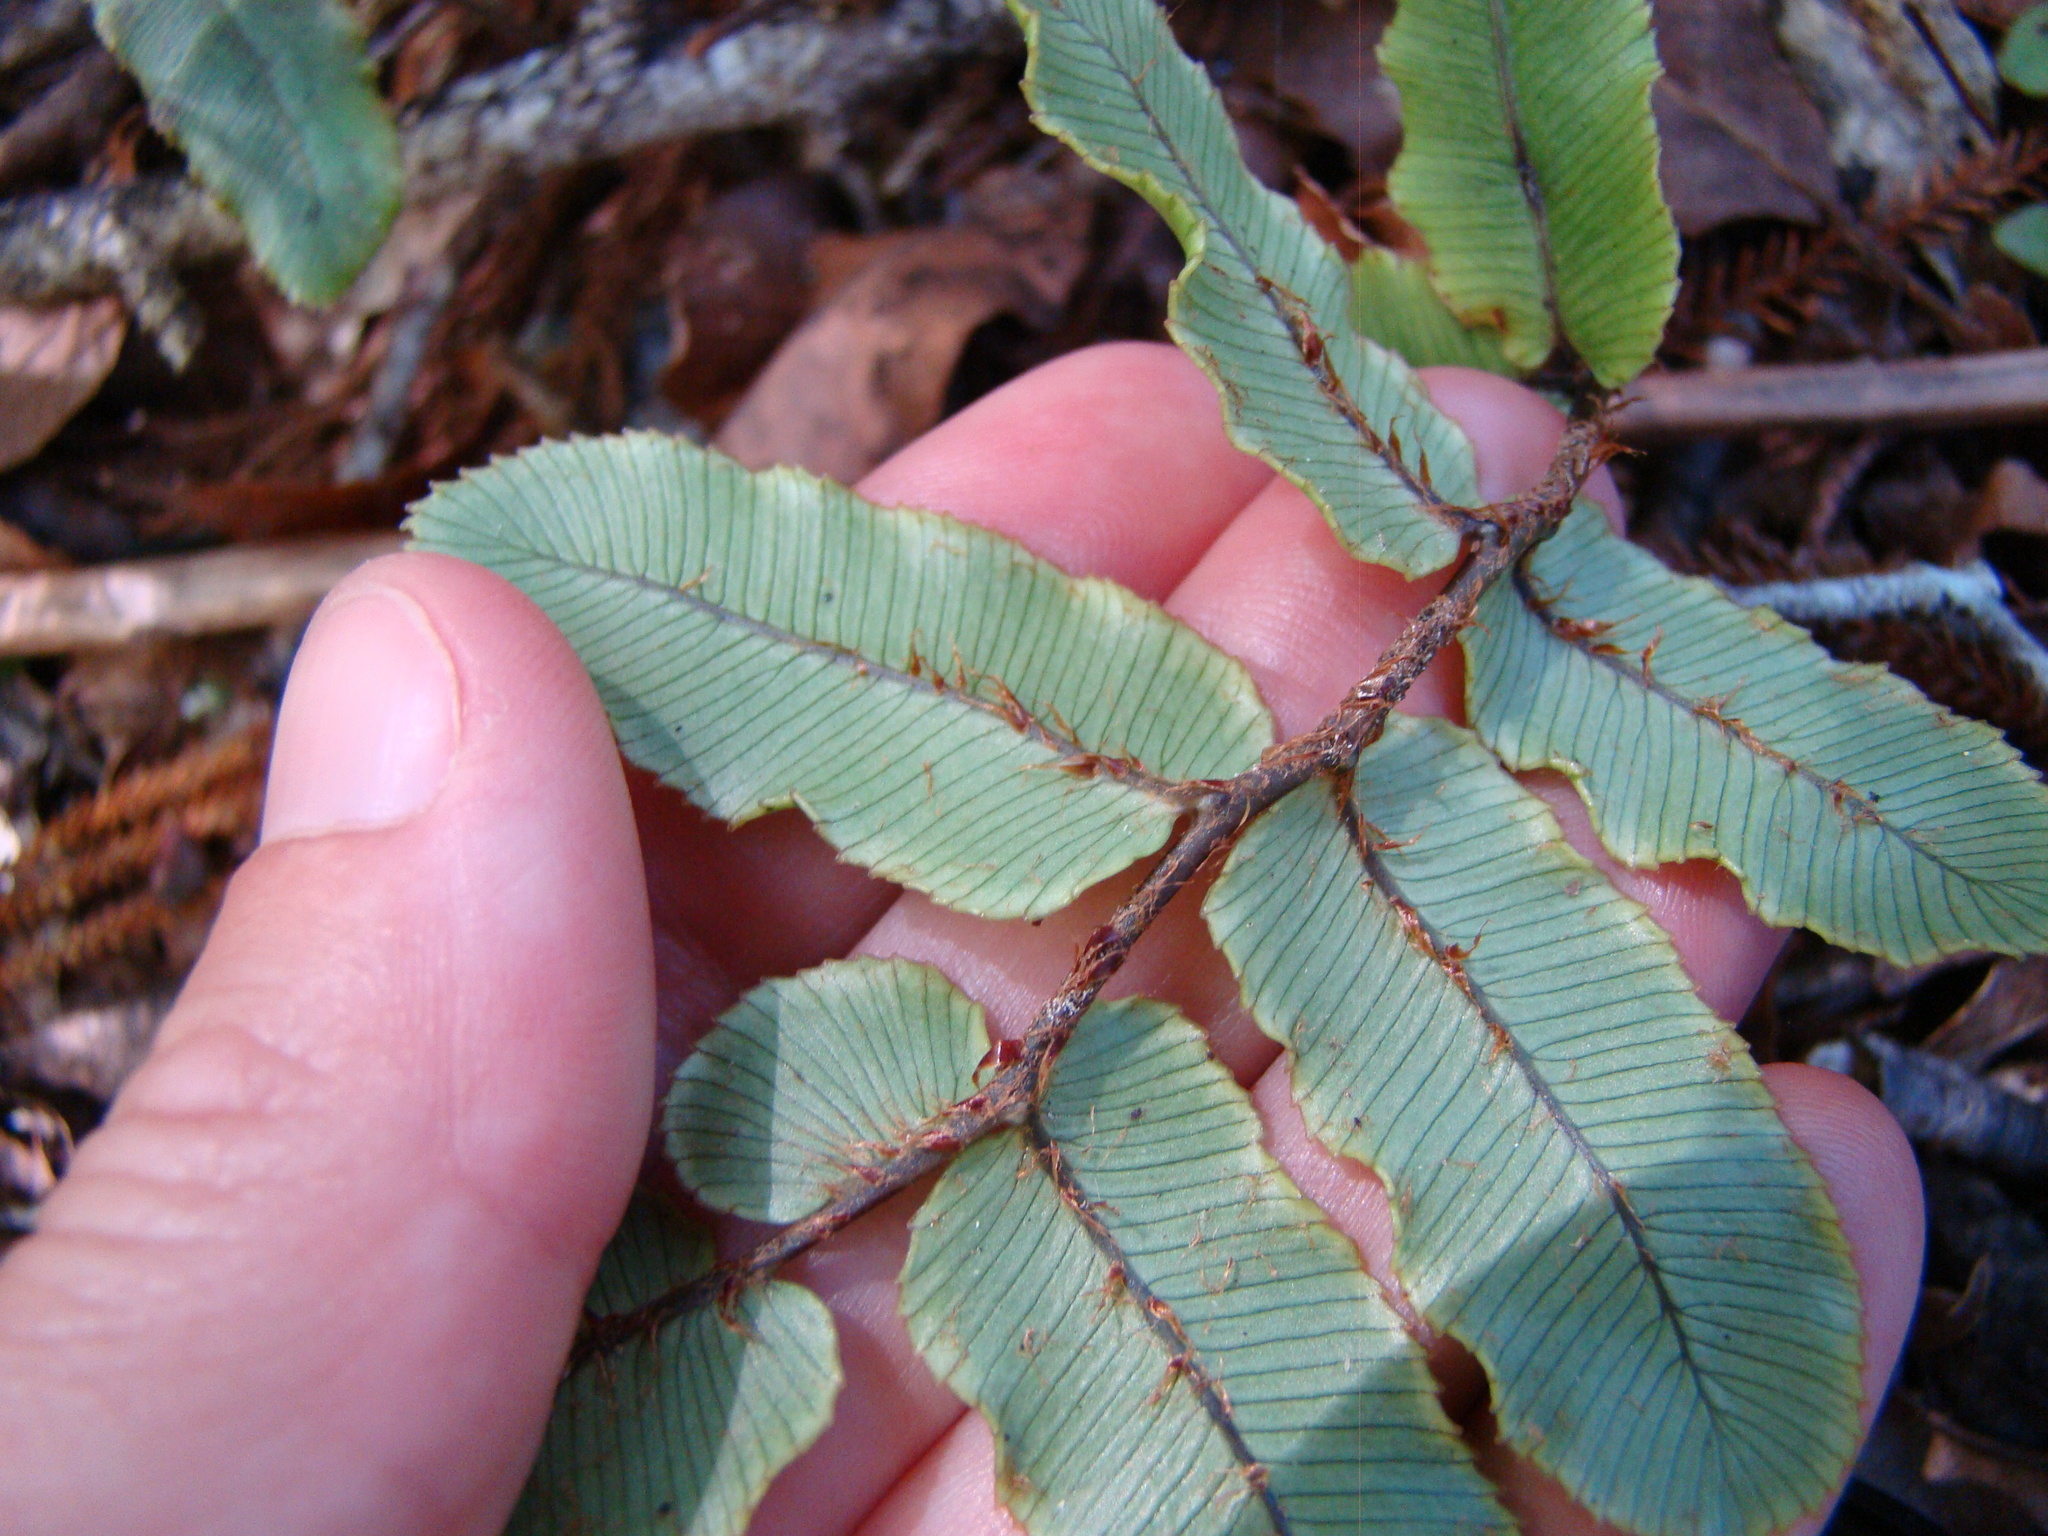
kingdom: Plantae
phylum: Tracheophyta
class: Polypodiopsida
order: Polypodiales
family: Blechnaceae
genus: Parablechnum
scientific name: Parablechnum procerum
